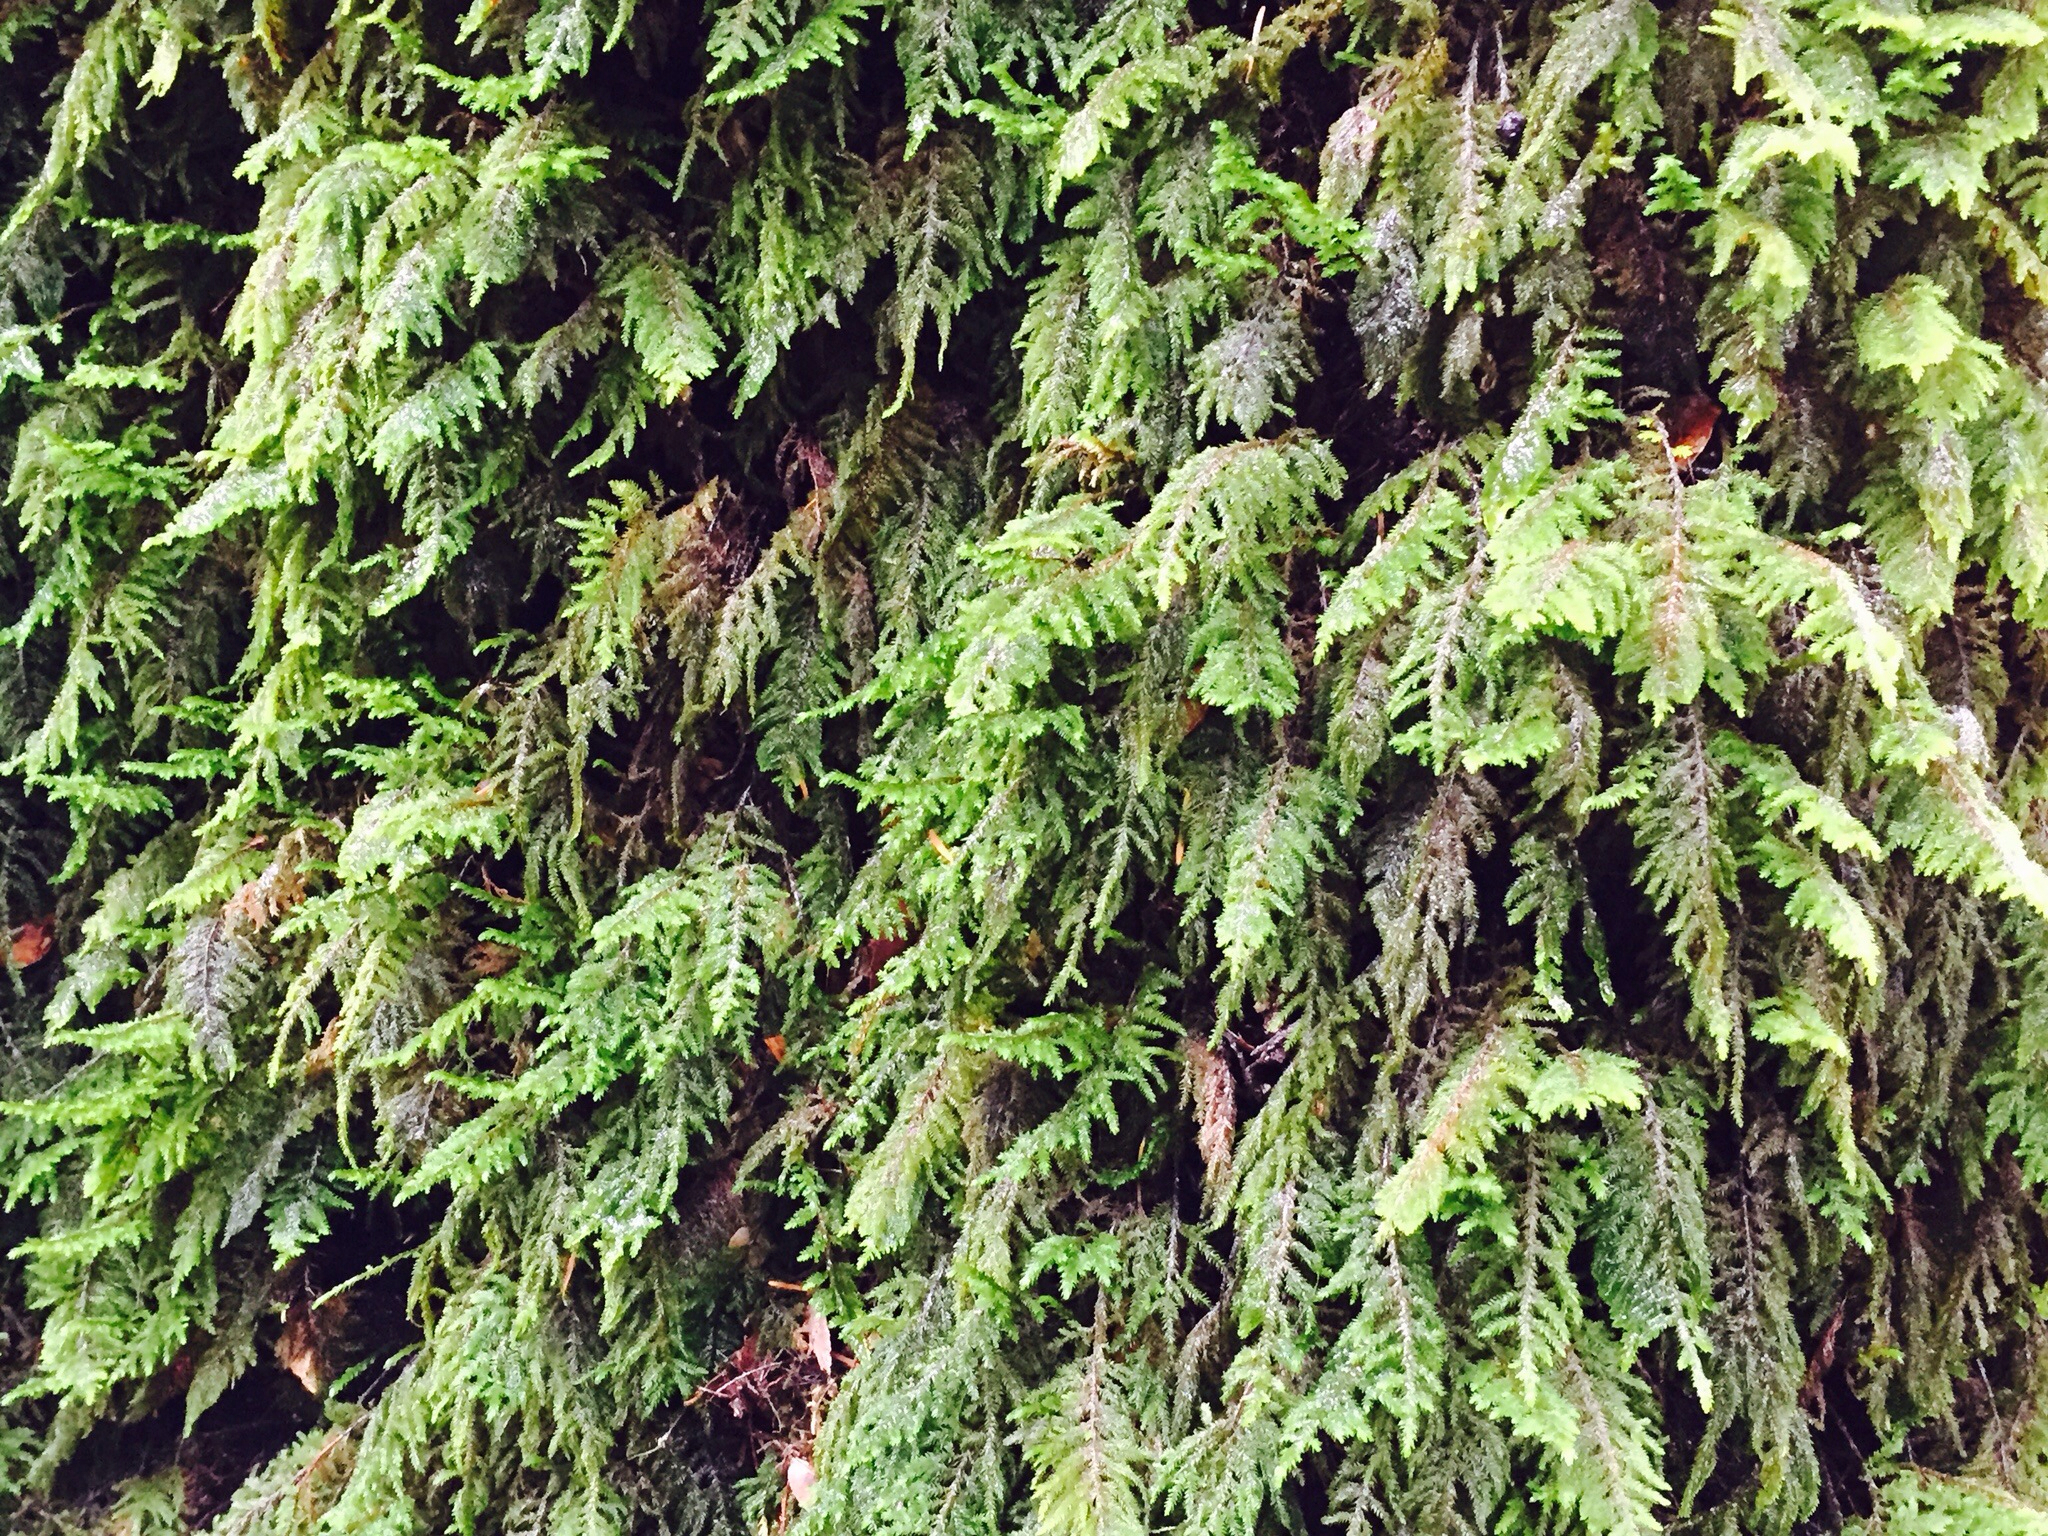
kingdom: Plantae
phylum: Bryophyta
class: Bryopsida
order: Hypnales
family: Cryphaeaceae
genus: Dendroalsia
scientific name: Dendroalsia abietina
